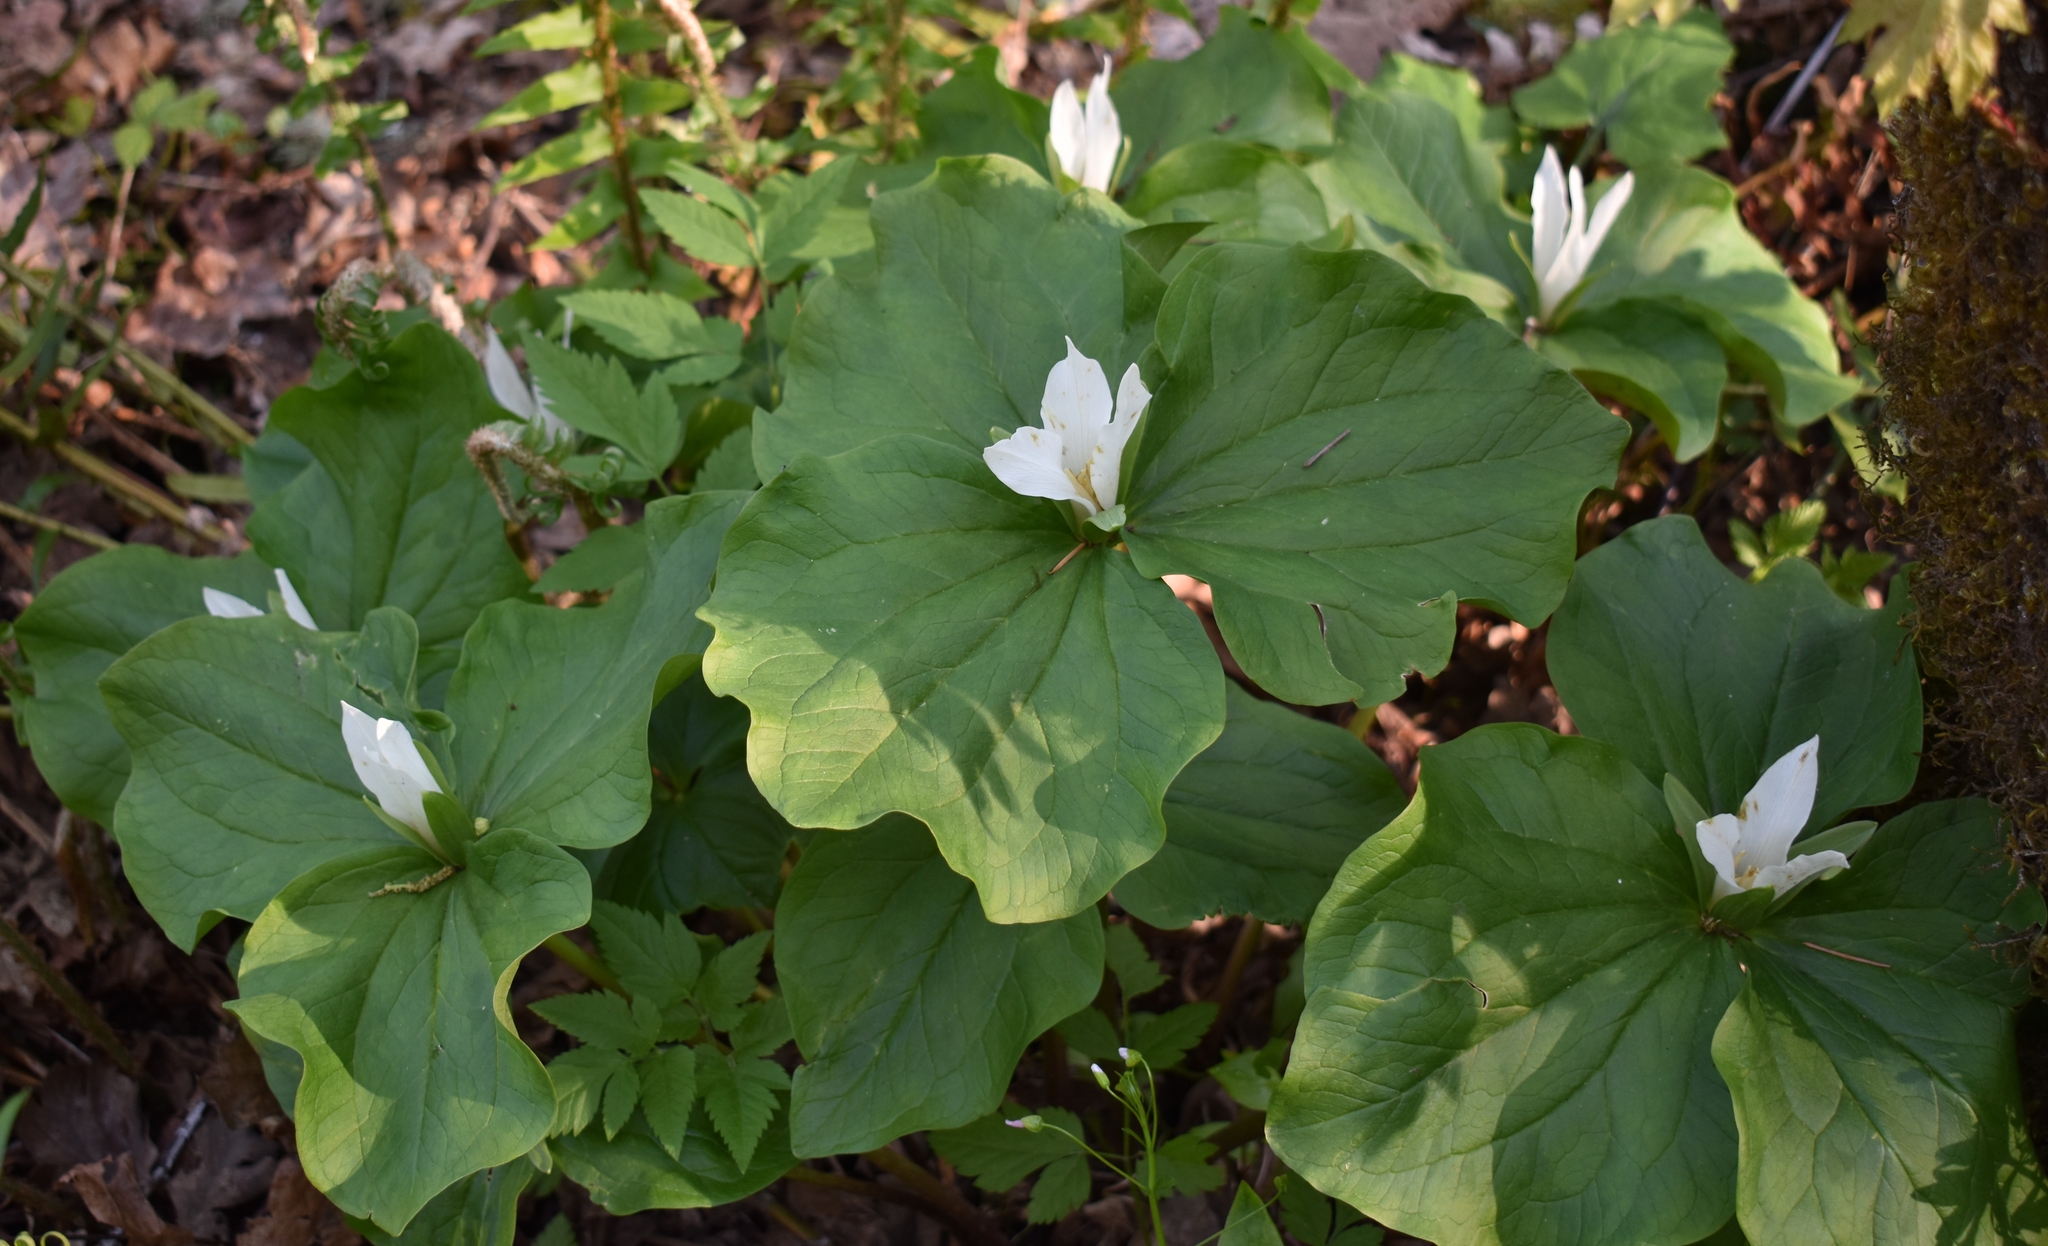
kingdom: Plantae
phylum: Tracheophyta
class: Liliopsida
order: Liliales
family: Melanthiaceae
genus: Trillium
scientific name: Trillium albidum
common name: Freeman's trillium
